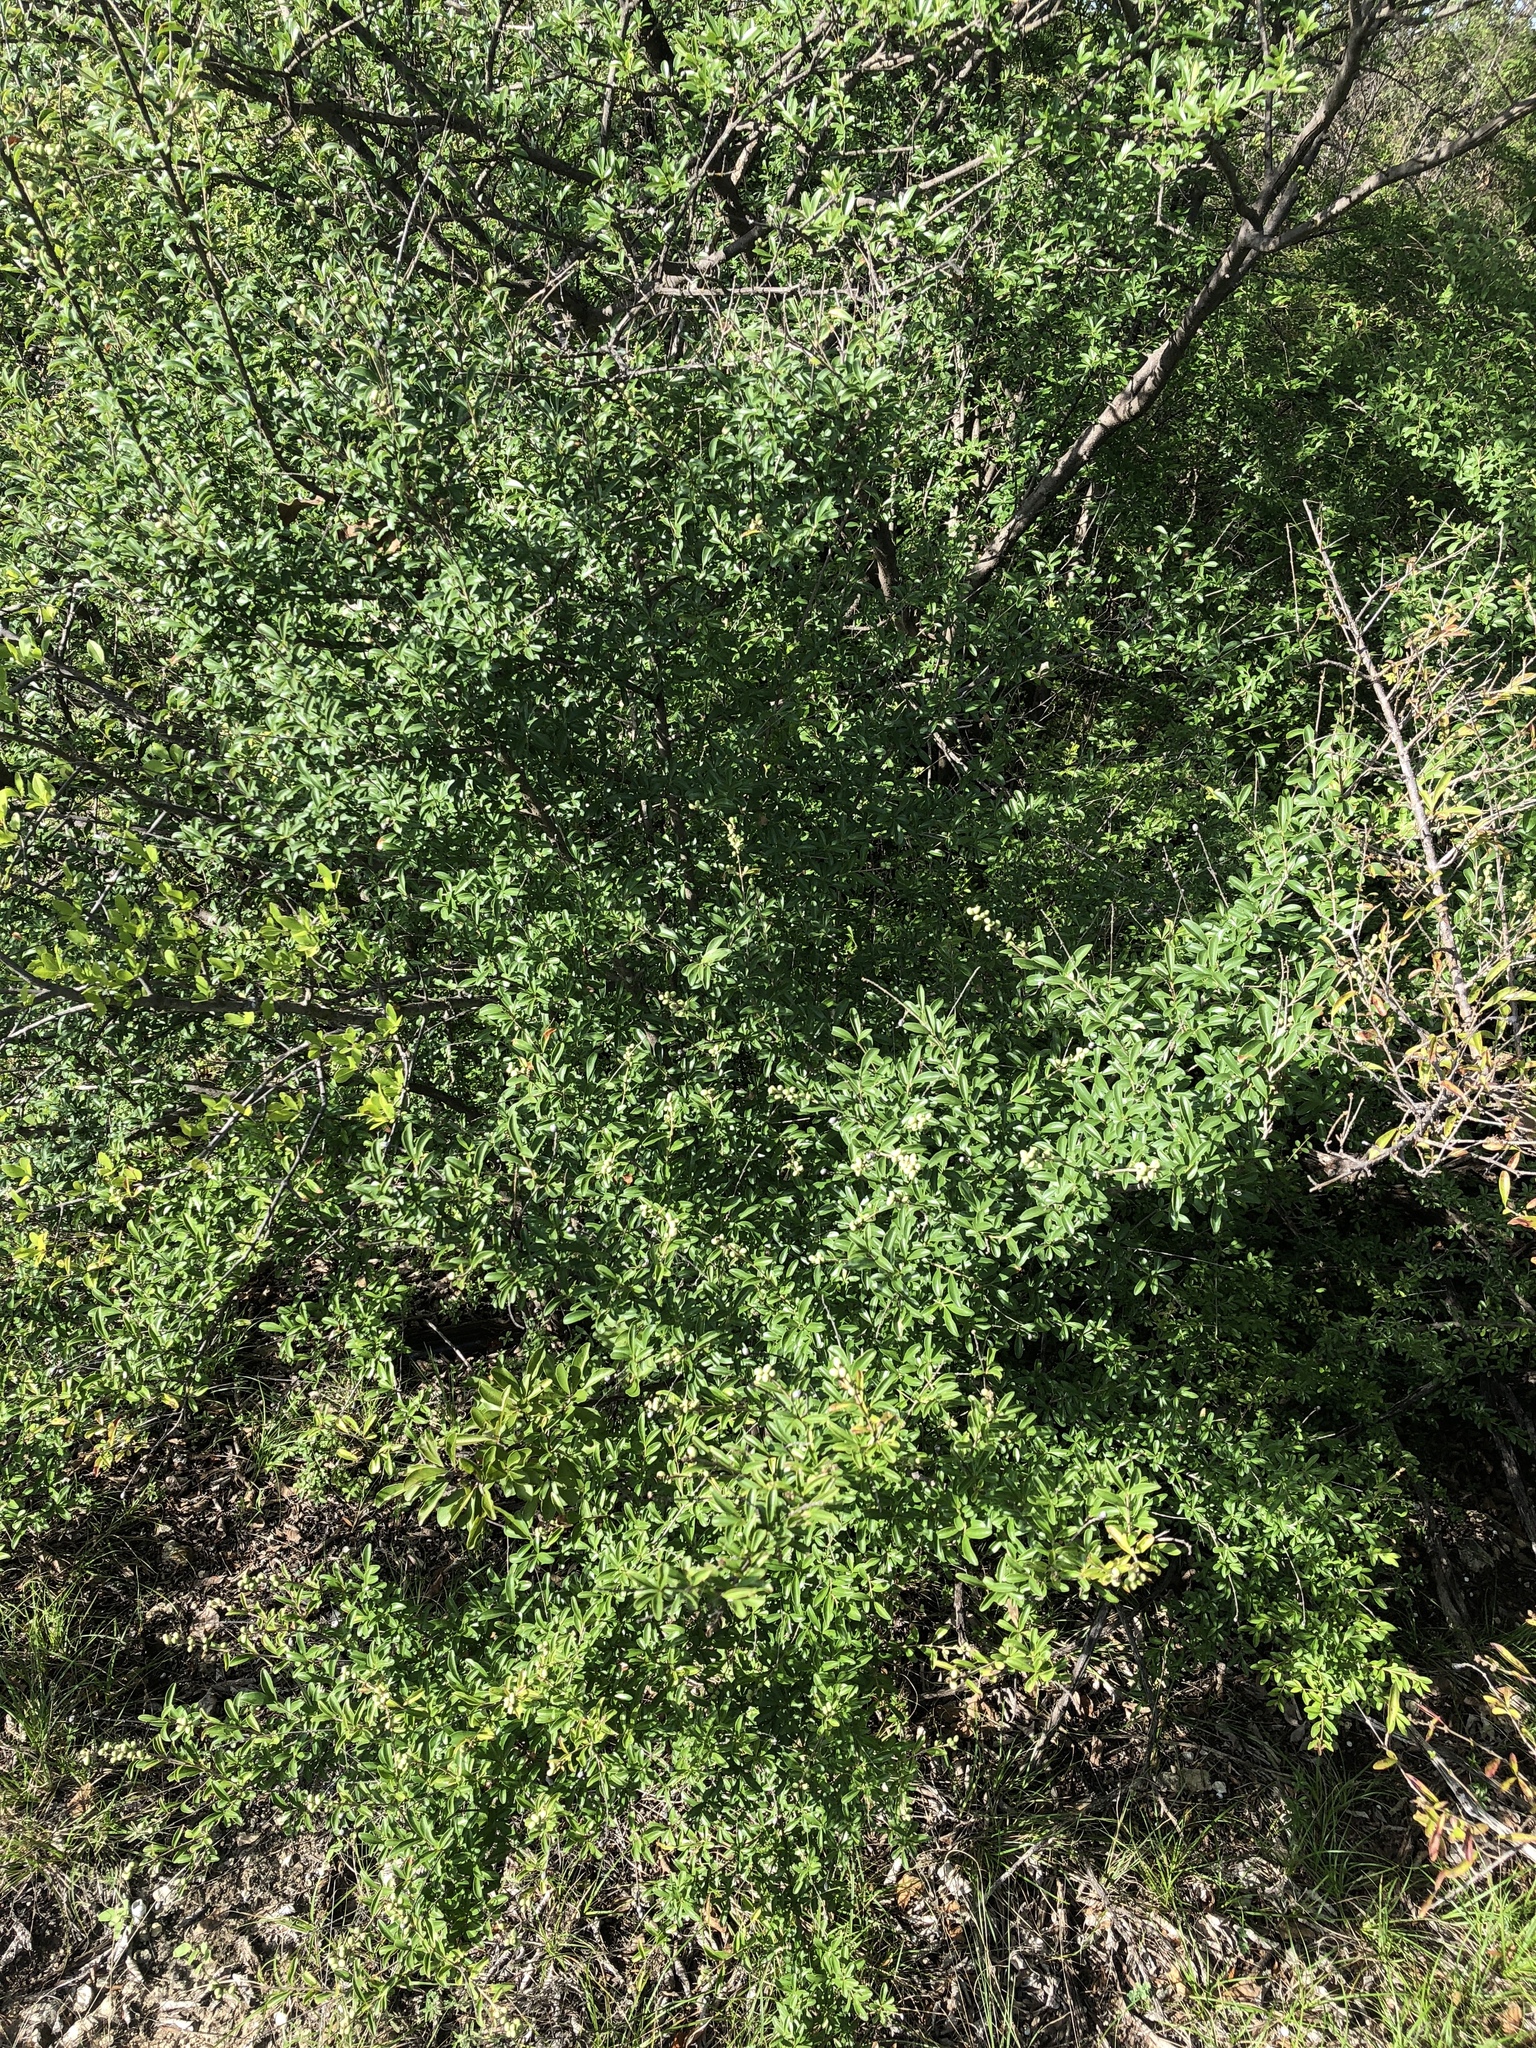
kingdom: Plantae
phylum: Tracheophyta
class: Magnoliopsida
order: Lamiales
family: Oleaceae
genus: Ligustrum
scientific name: Ligustrum quihoui
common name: Waxyleaf privet
